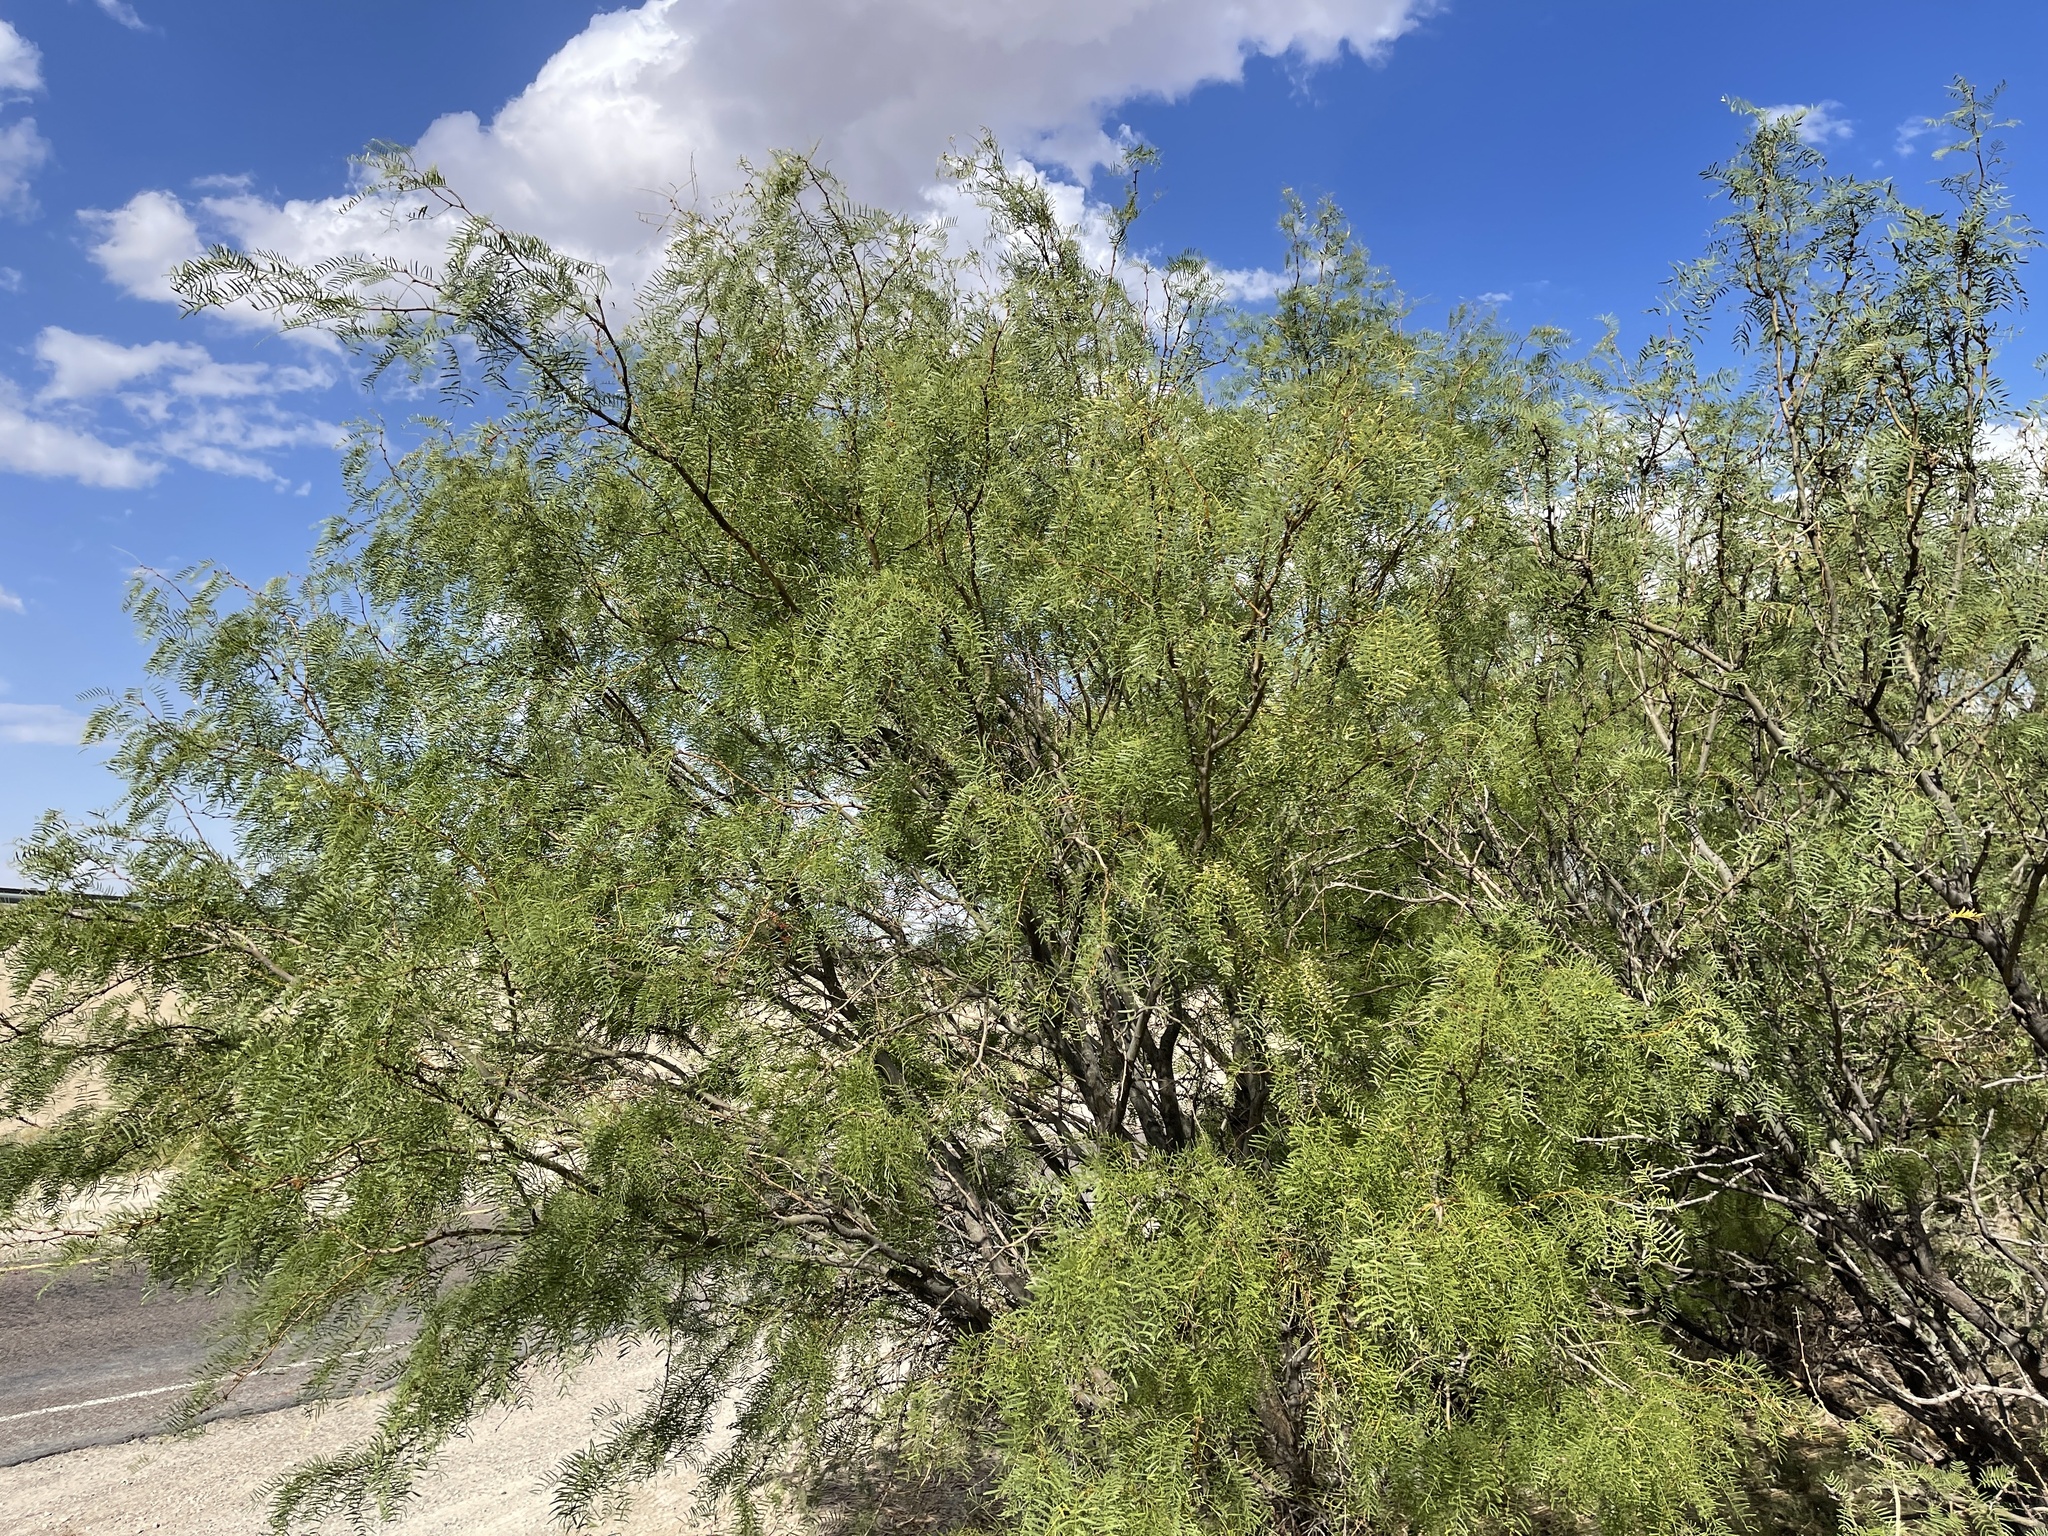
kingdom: Plantae
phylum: Tracheophyta
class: Magnoliopsida
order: Fabales
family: Fabaceae
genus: Prosopis
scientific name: Prosopis glandulosa
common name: Honey mesquite
